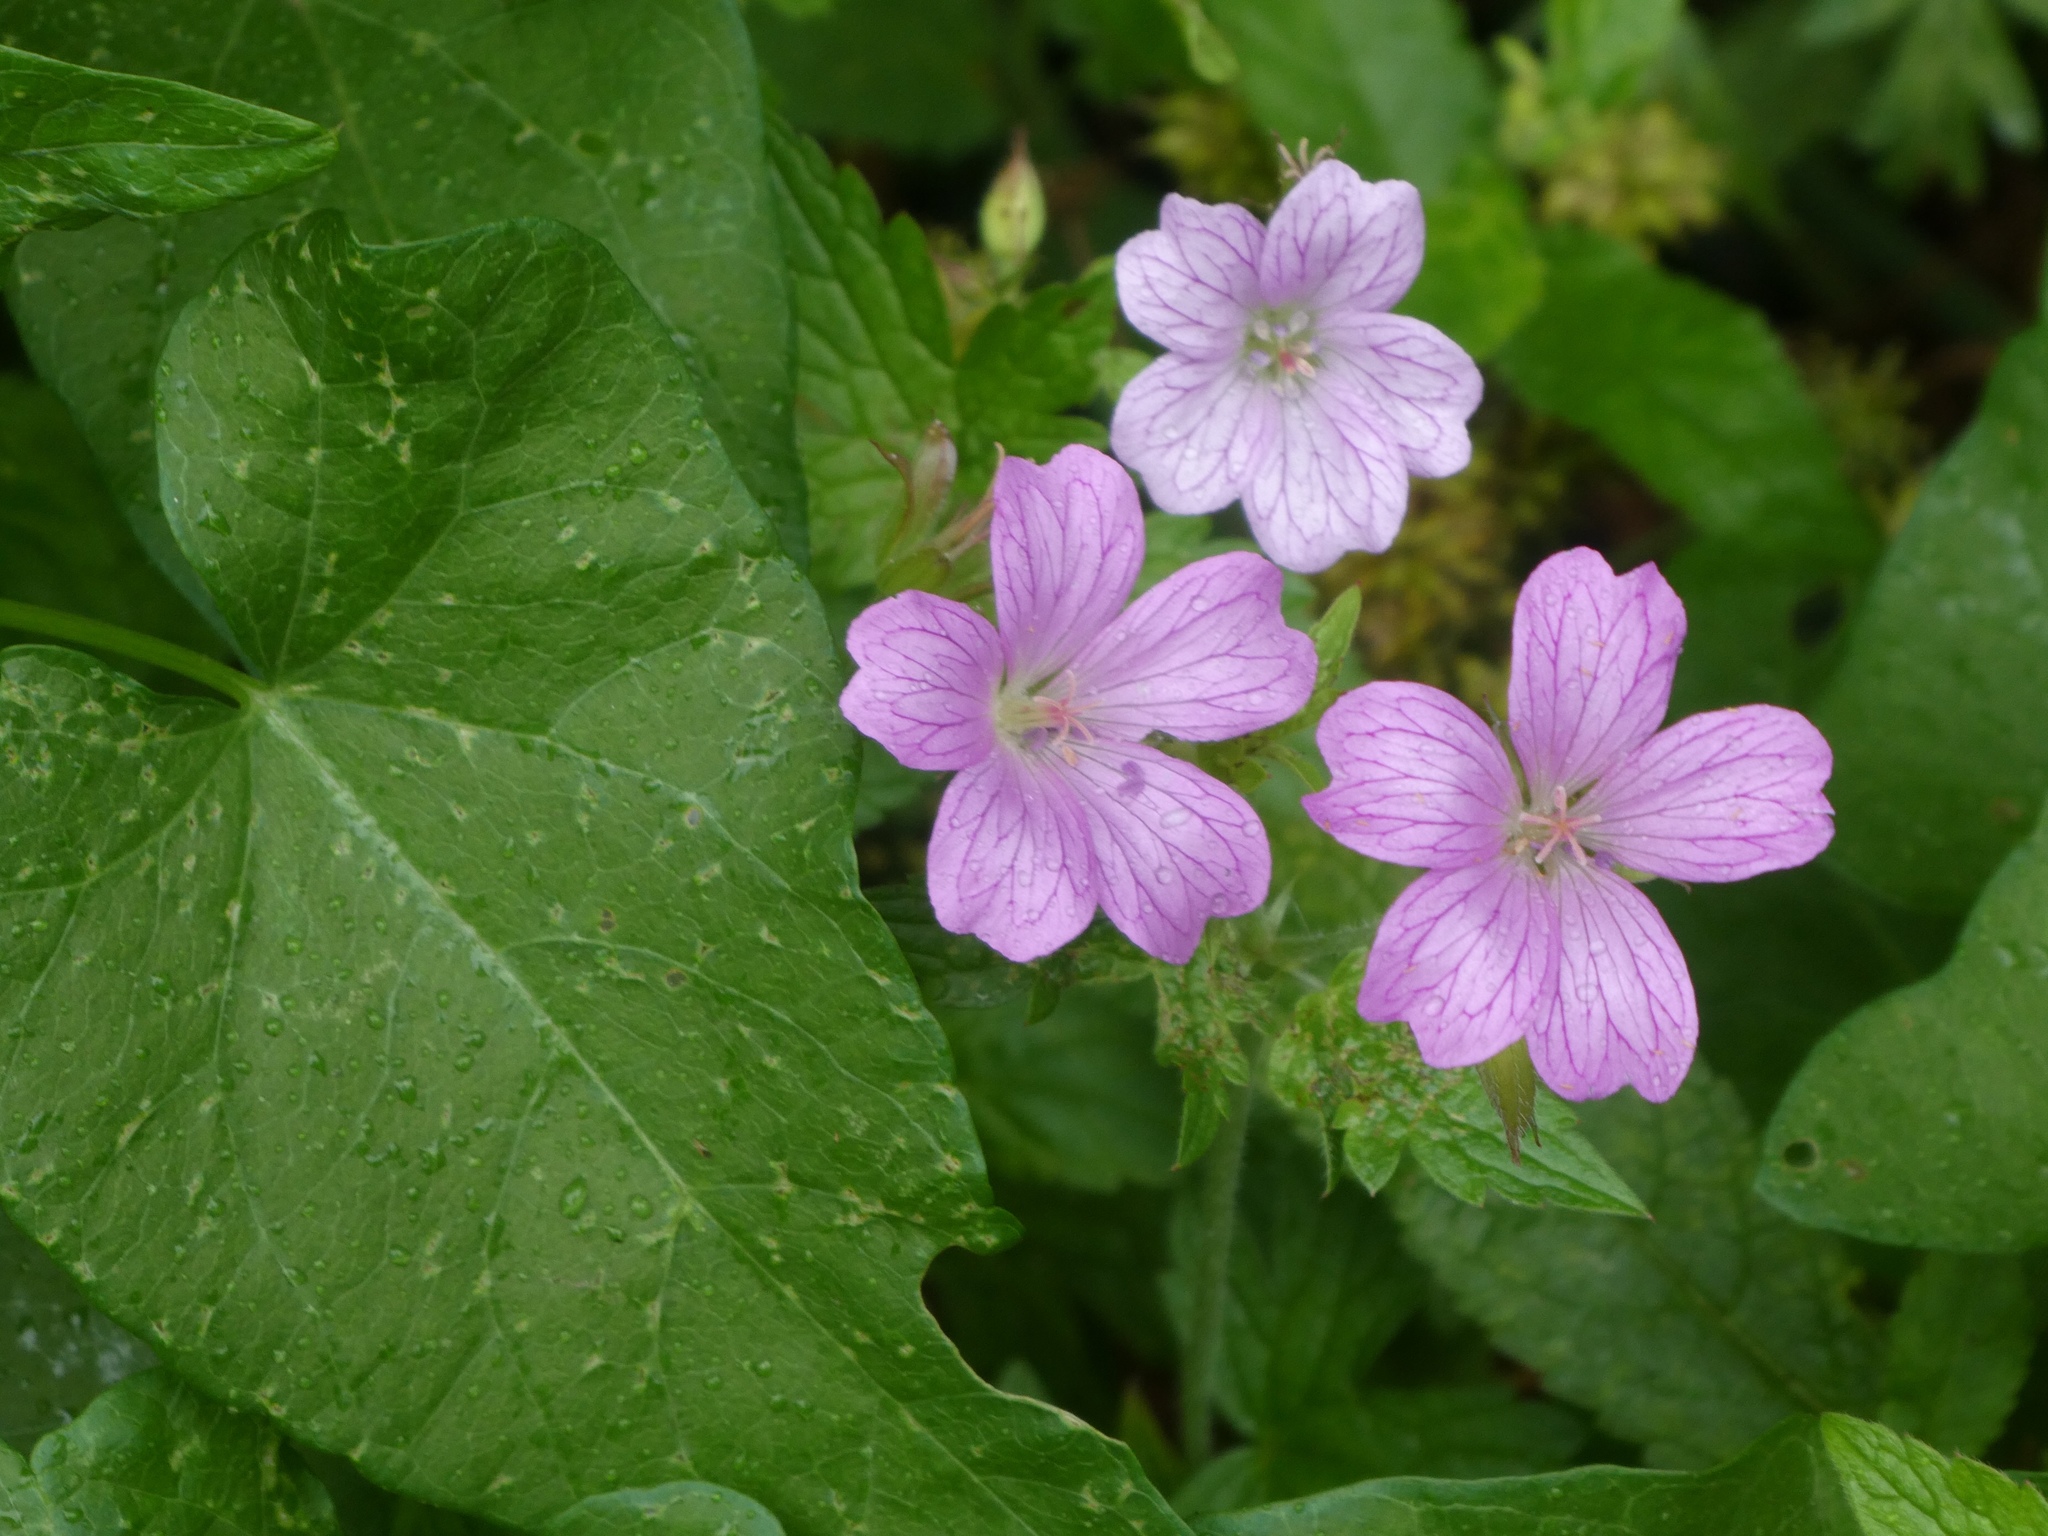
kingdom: Plantae
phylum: Tracheophyta
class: Magnoliopsida
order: Geraniales
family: Geraniaceae
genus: Geranium
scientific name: Geranium oxonianum
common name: Druce's crane's-bill
